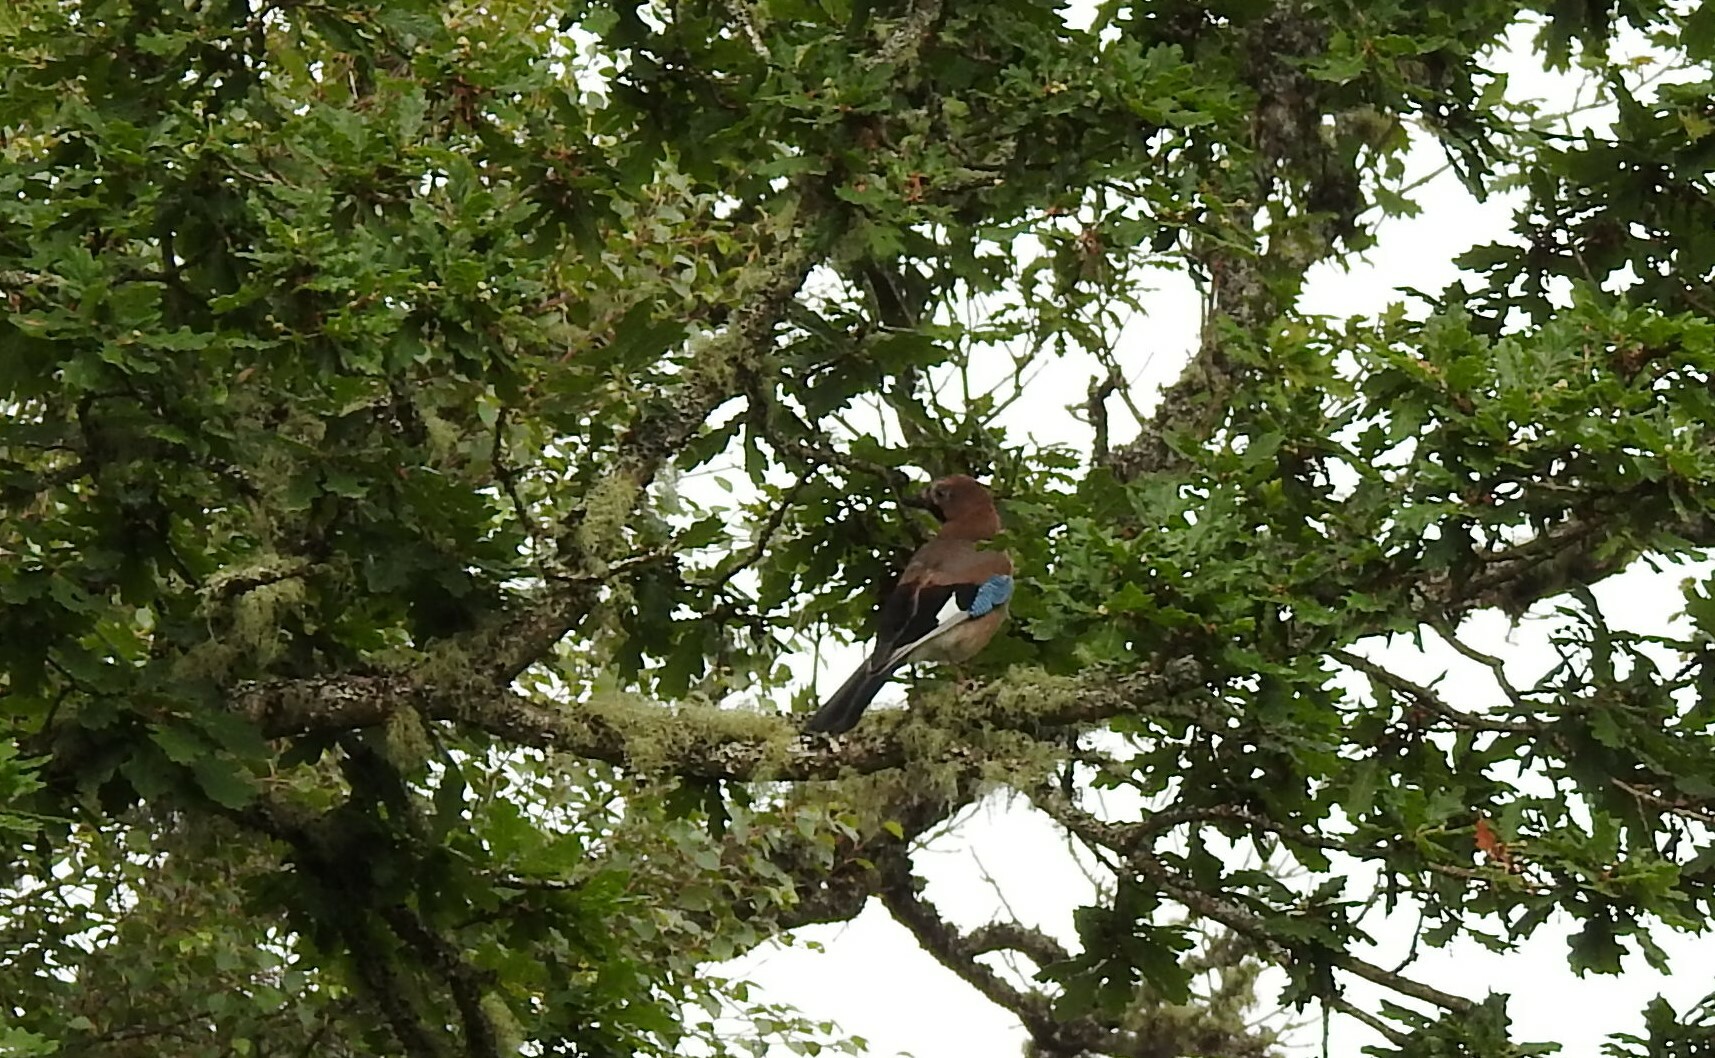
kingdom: Animalia
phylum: Chordata
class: Aves
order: Passeriformes
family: Corvidae
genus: Garrulus
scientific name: Garrulus glandarius
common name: Eurasian jay
